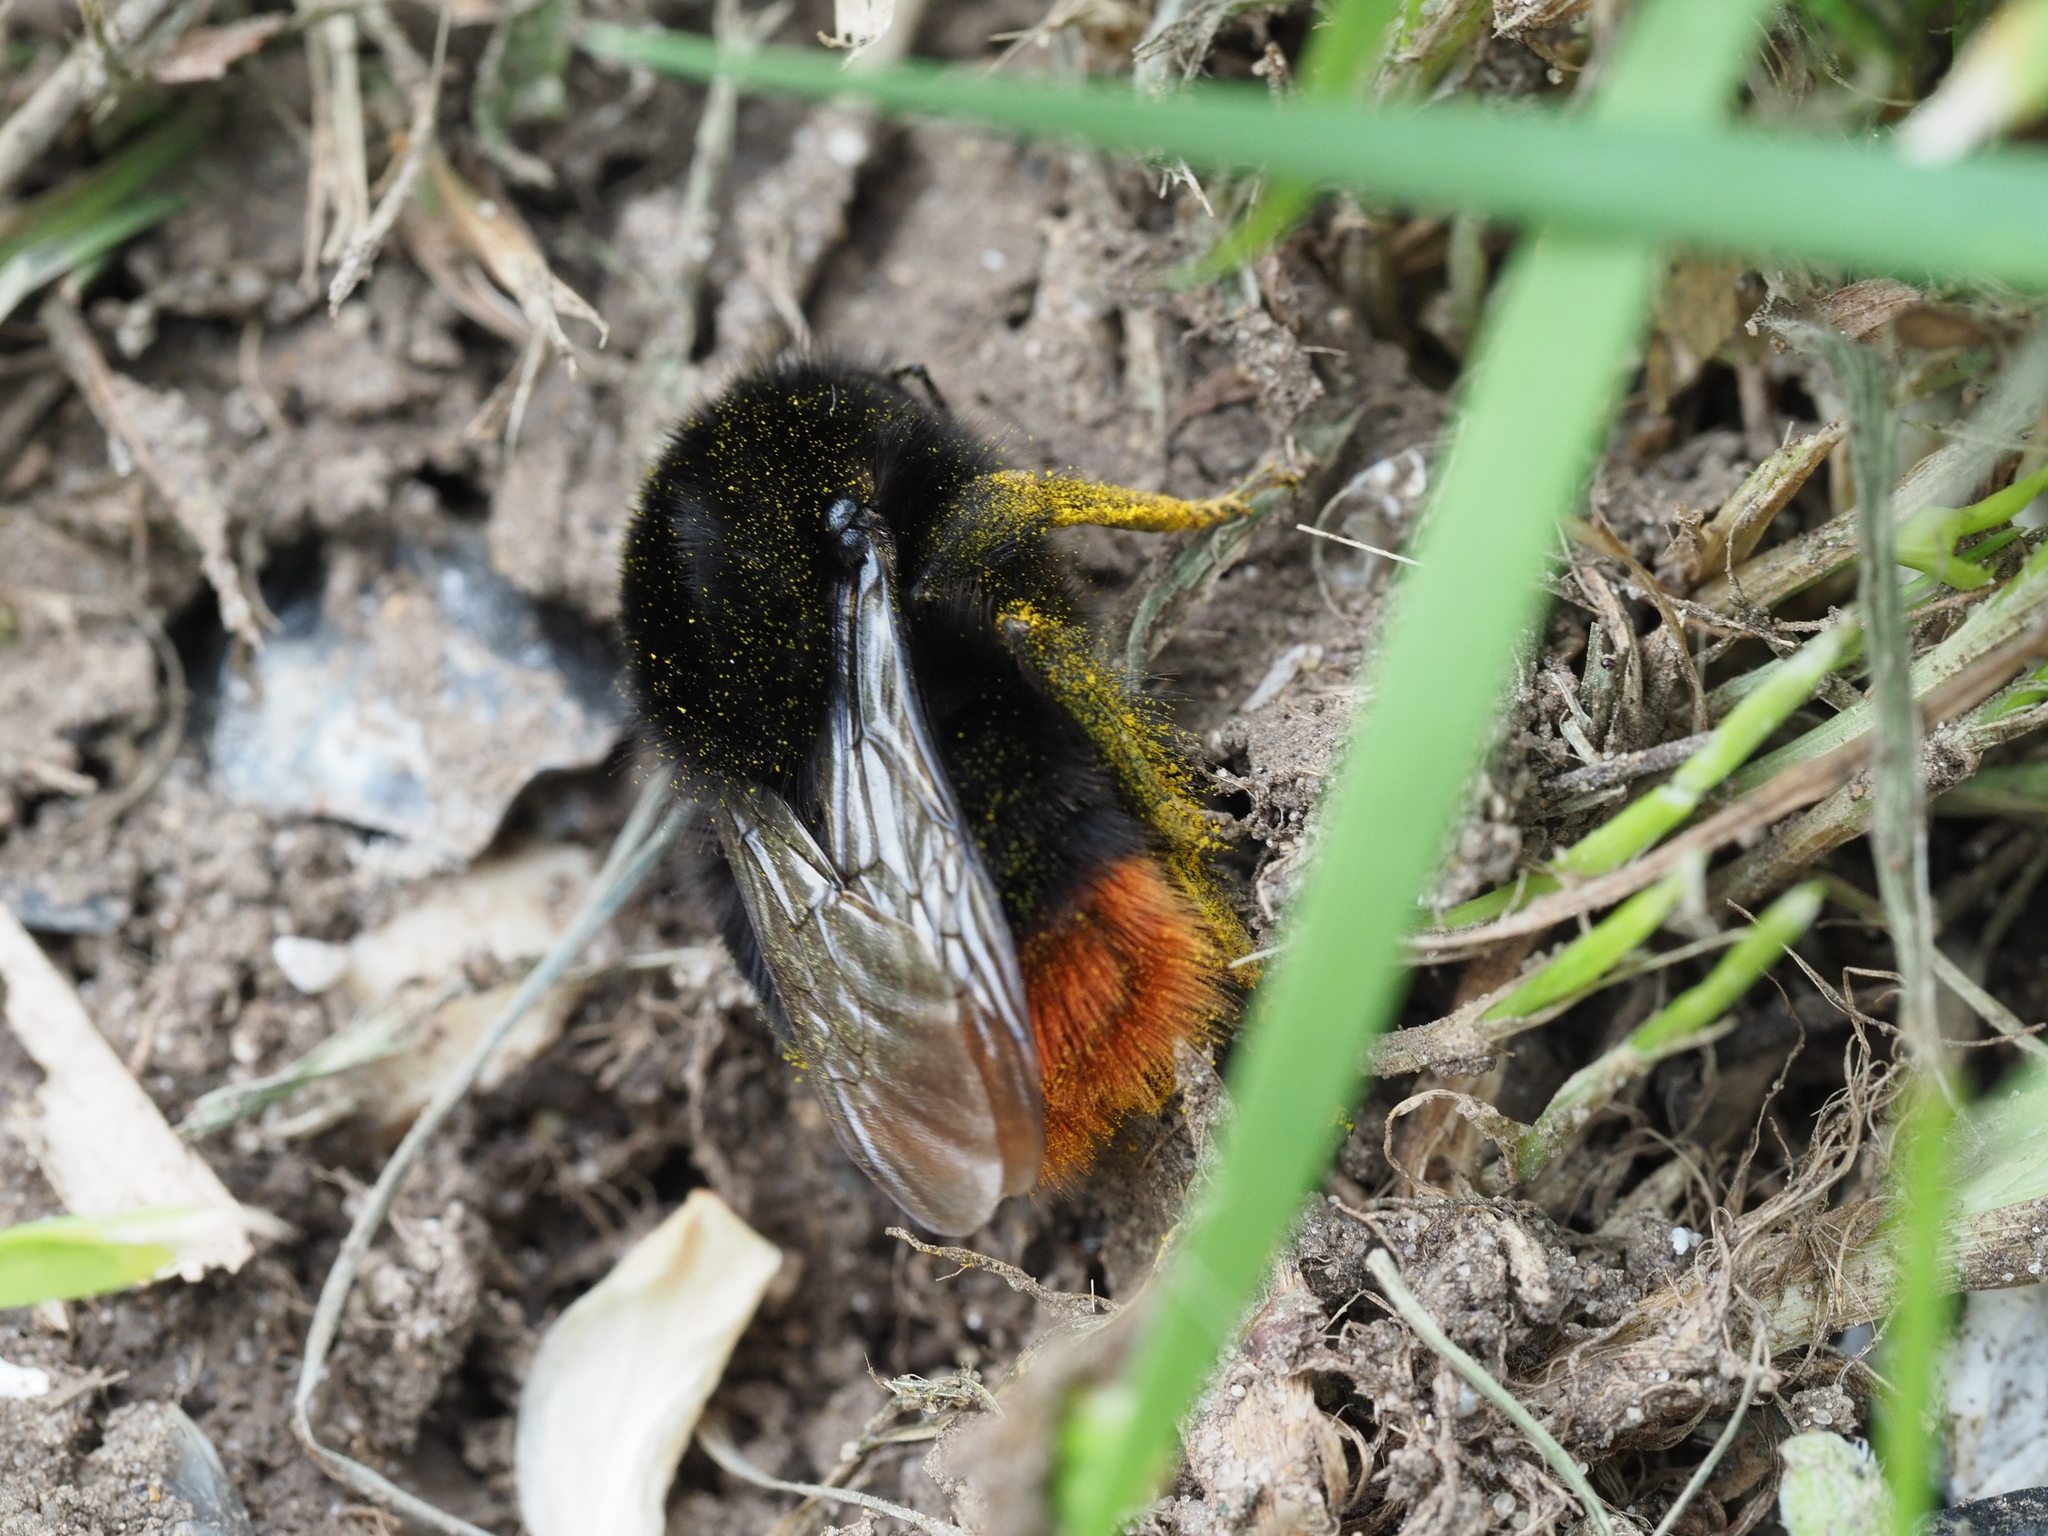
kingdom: Animalia
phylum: Arthropoda
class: Insecta
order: Hymenoptera
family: Apidae
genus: Bombus
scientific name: Bombus lapidarius
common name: Large red-tailed humble-bee
